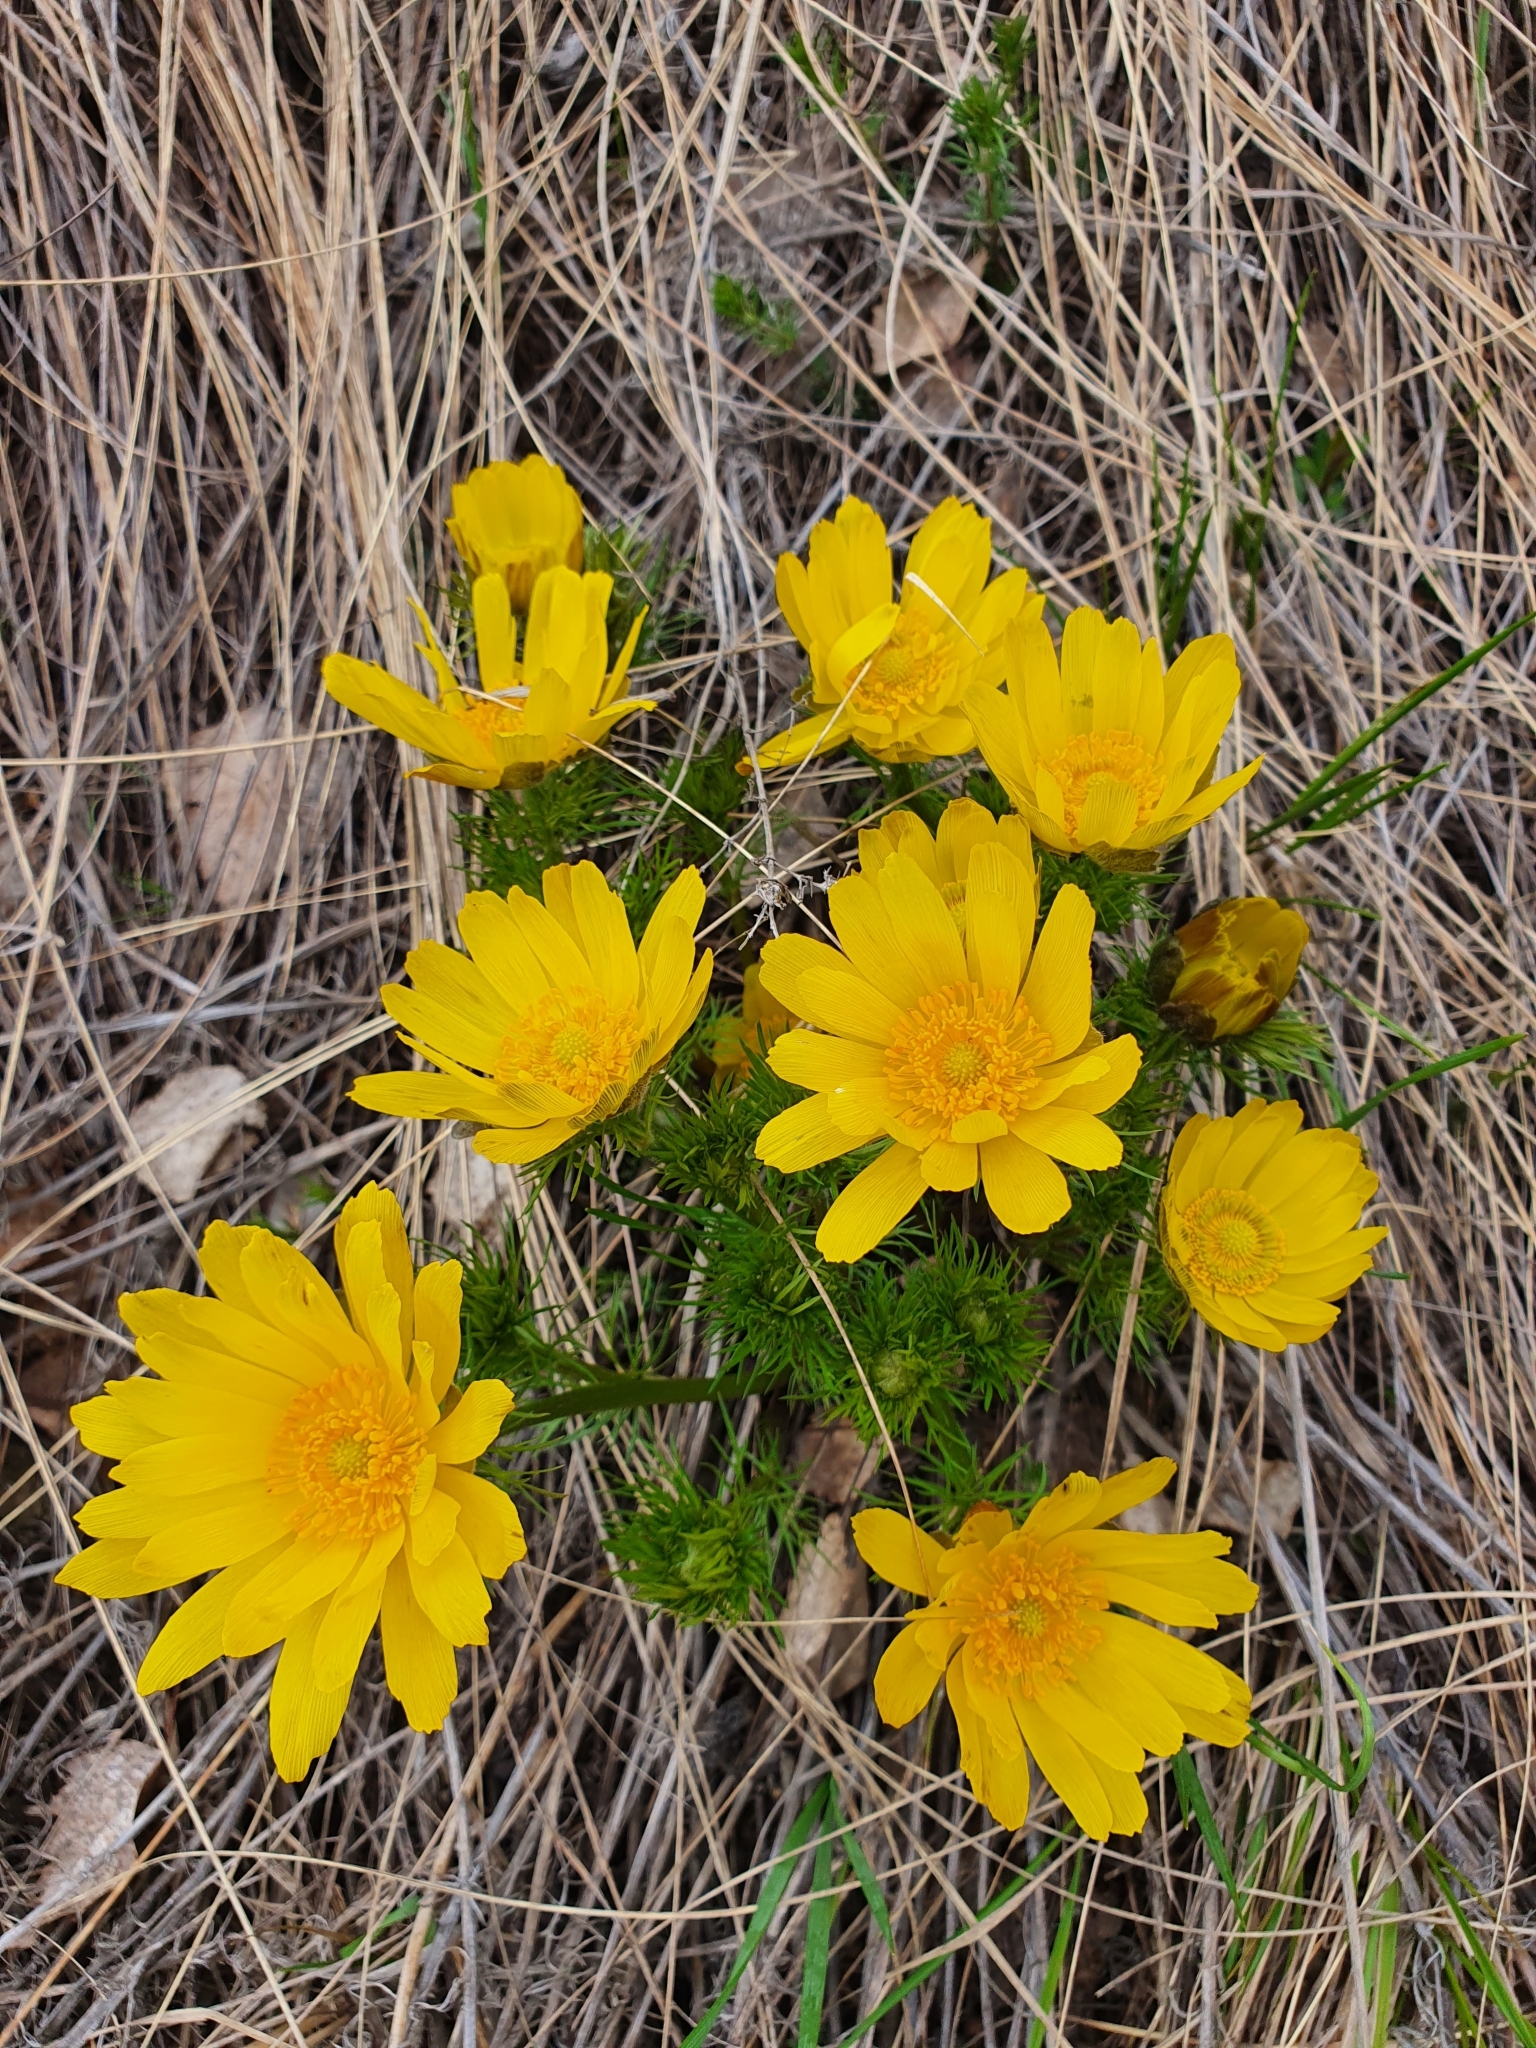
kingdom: Plantae
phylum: Tracheophyta
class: Magnoliopsida
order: Ranunculales
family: Ranunculaceae
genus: Adonis
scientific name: Adonis vernalis
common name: Yellow pheasants-eye
